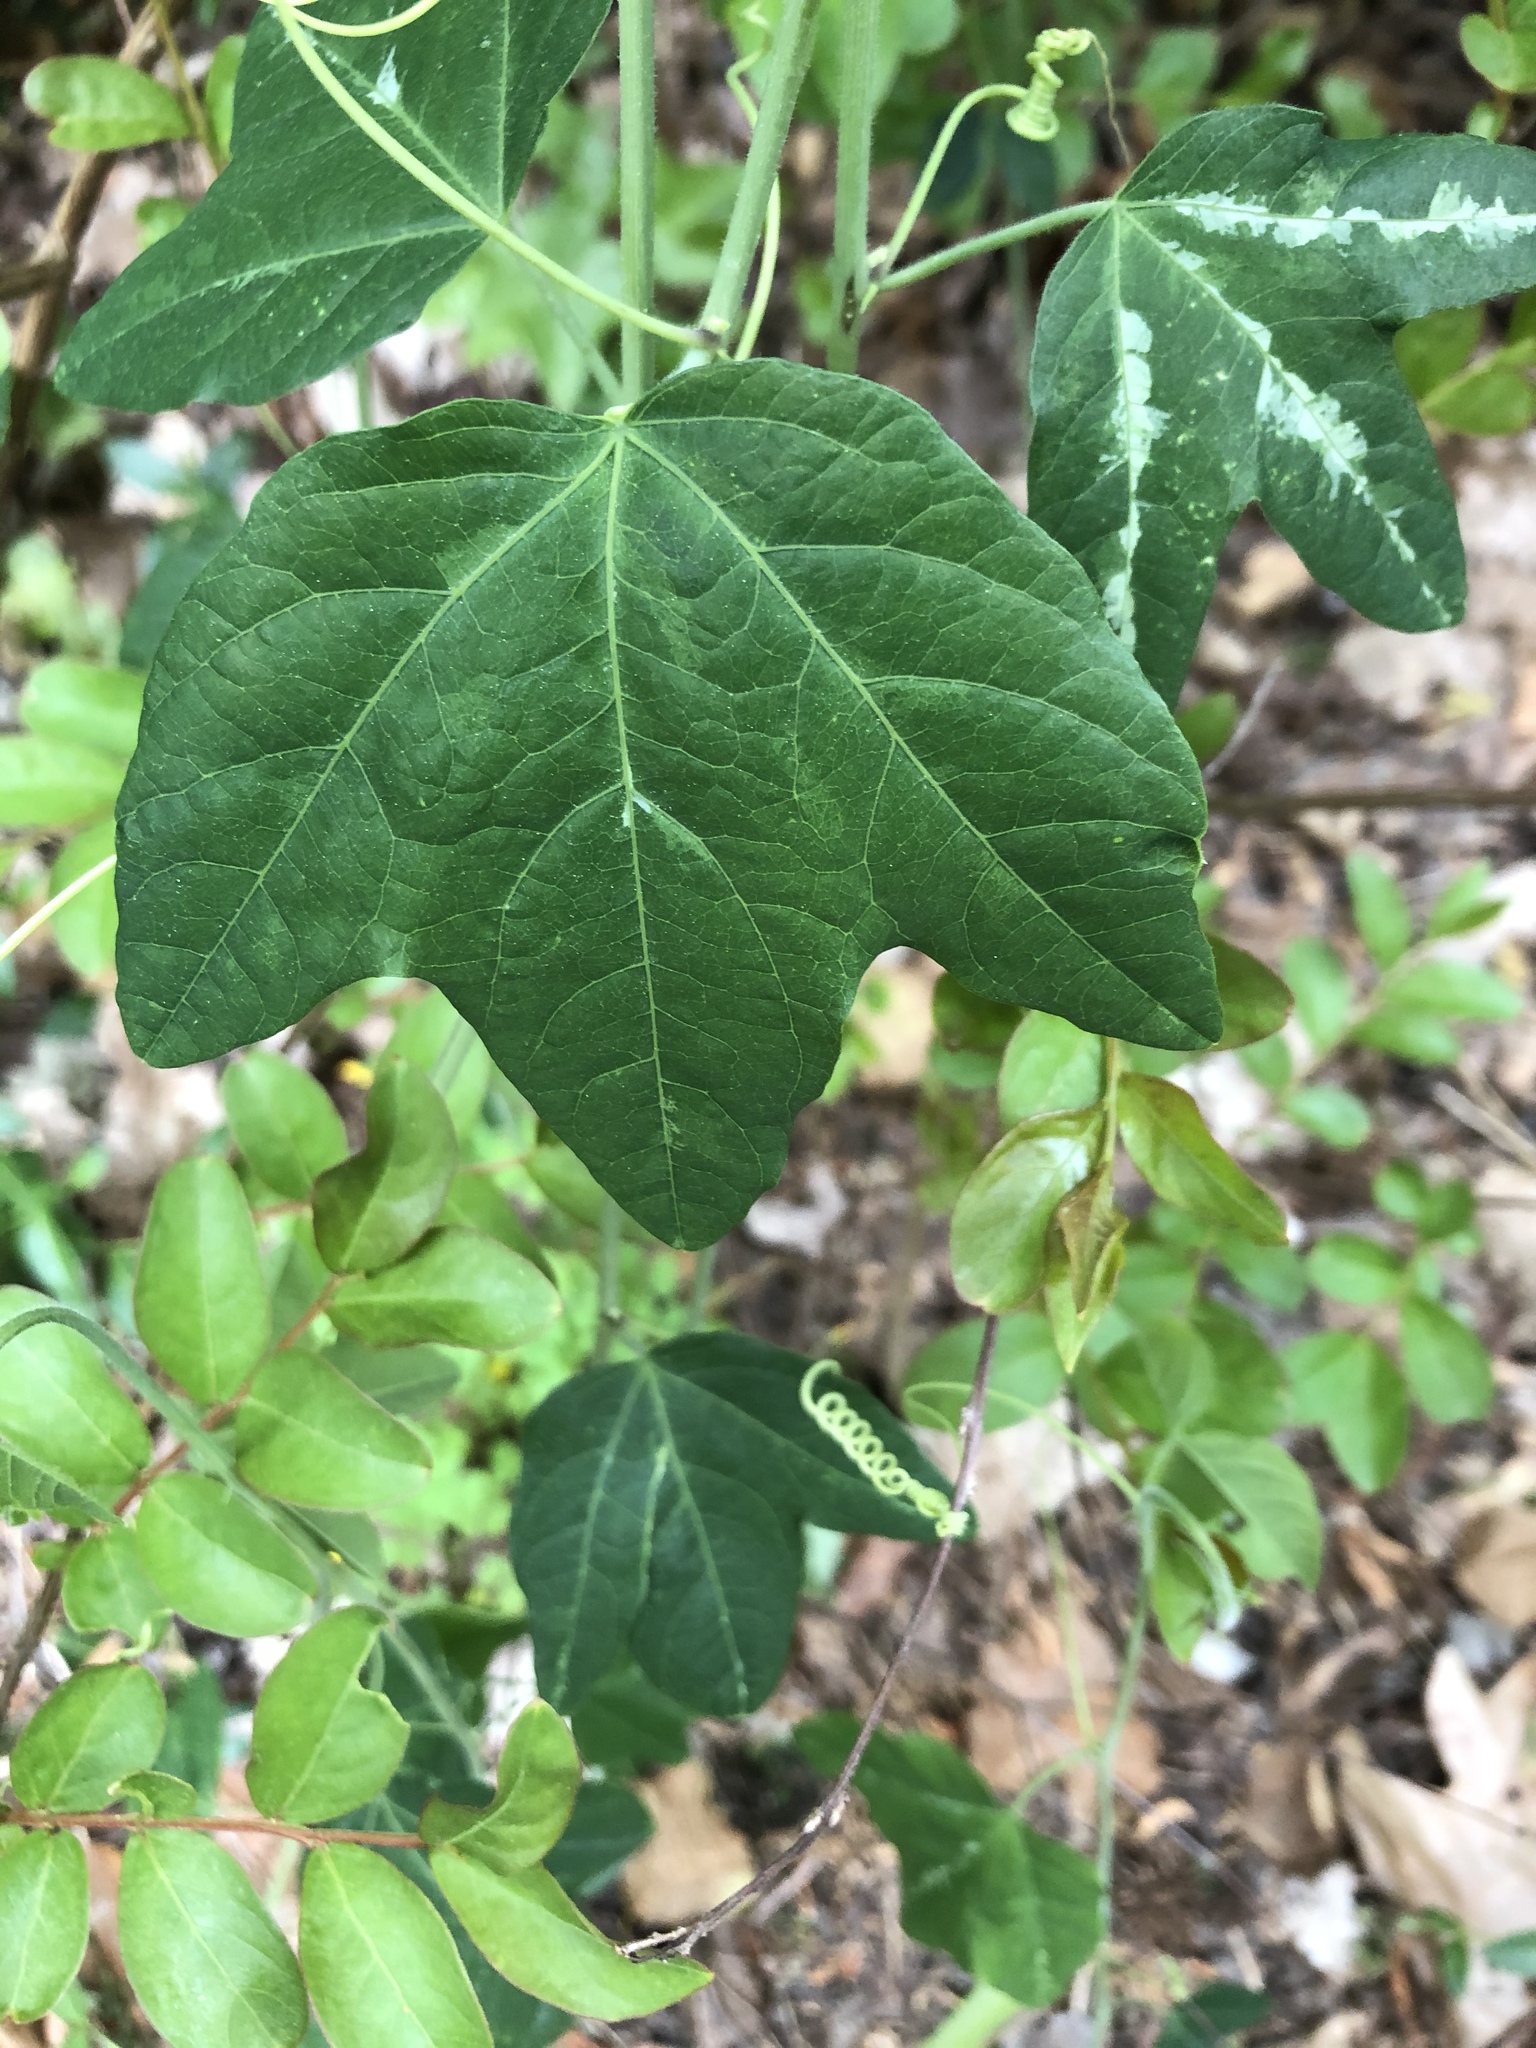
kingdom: Plantae
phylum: Tracheophyta
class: Magnoliopsida
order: Malpighiales
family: Passifloraceae
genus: Passiflora
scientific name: Passiflora lutea
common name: Yellow passionflower
